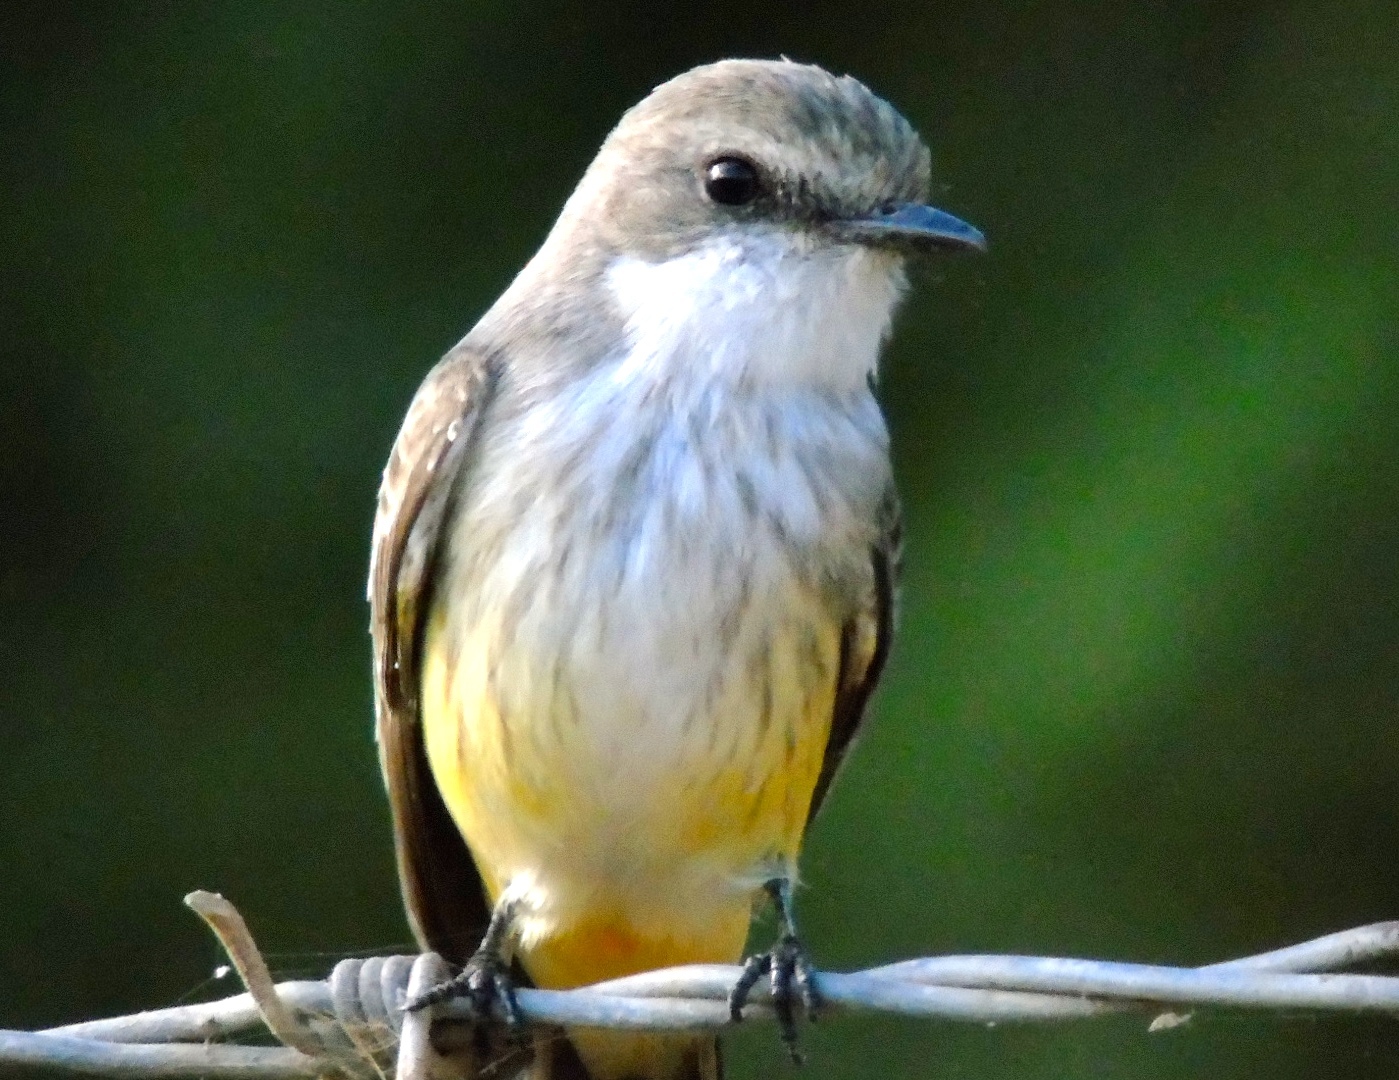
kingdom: Animalia
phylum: Chordata
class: Aves
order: Passeriformes
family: Tyrannidae
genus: Pyrocephalus
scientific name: Pyrocephalus rubinus
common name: Vermilion flycatcher
